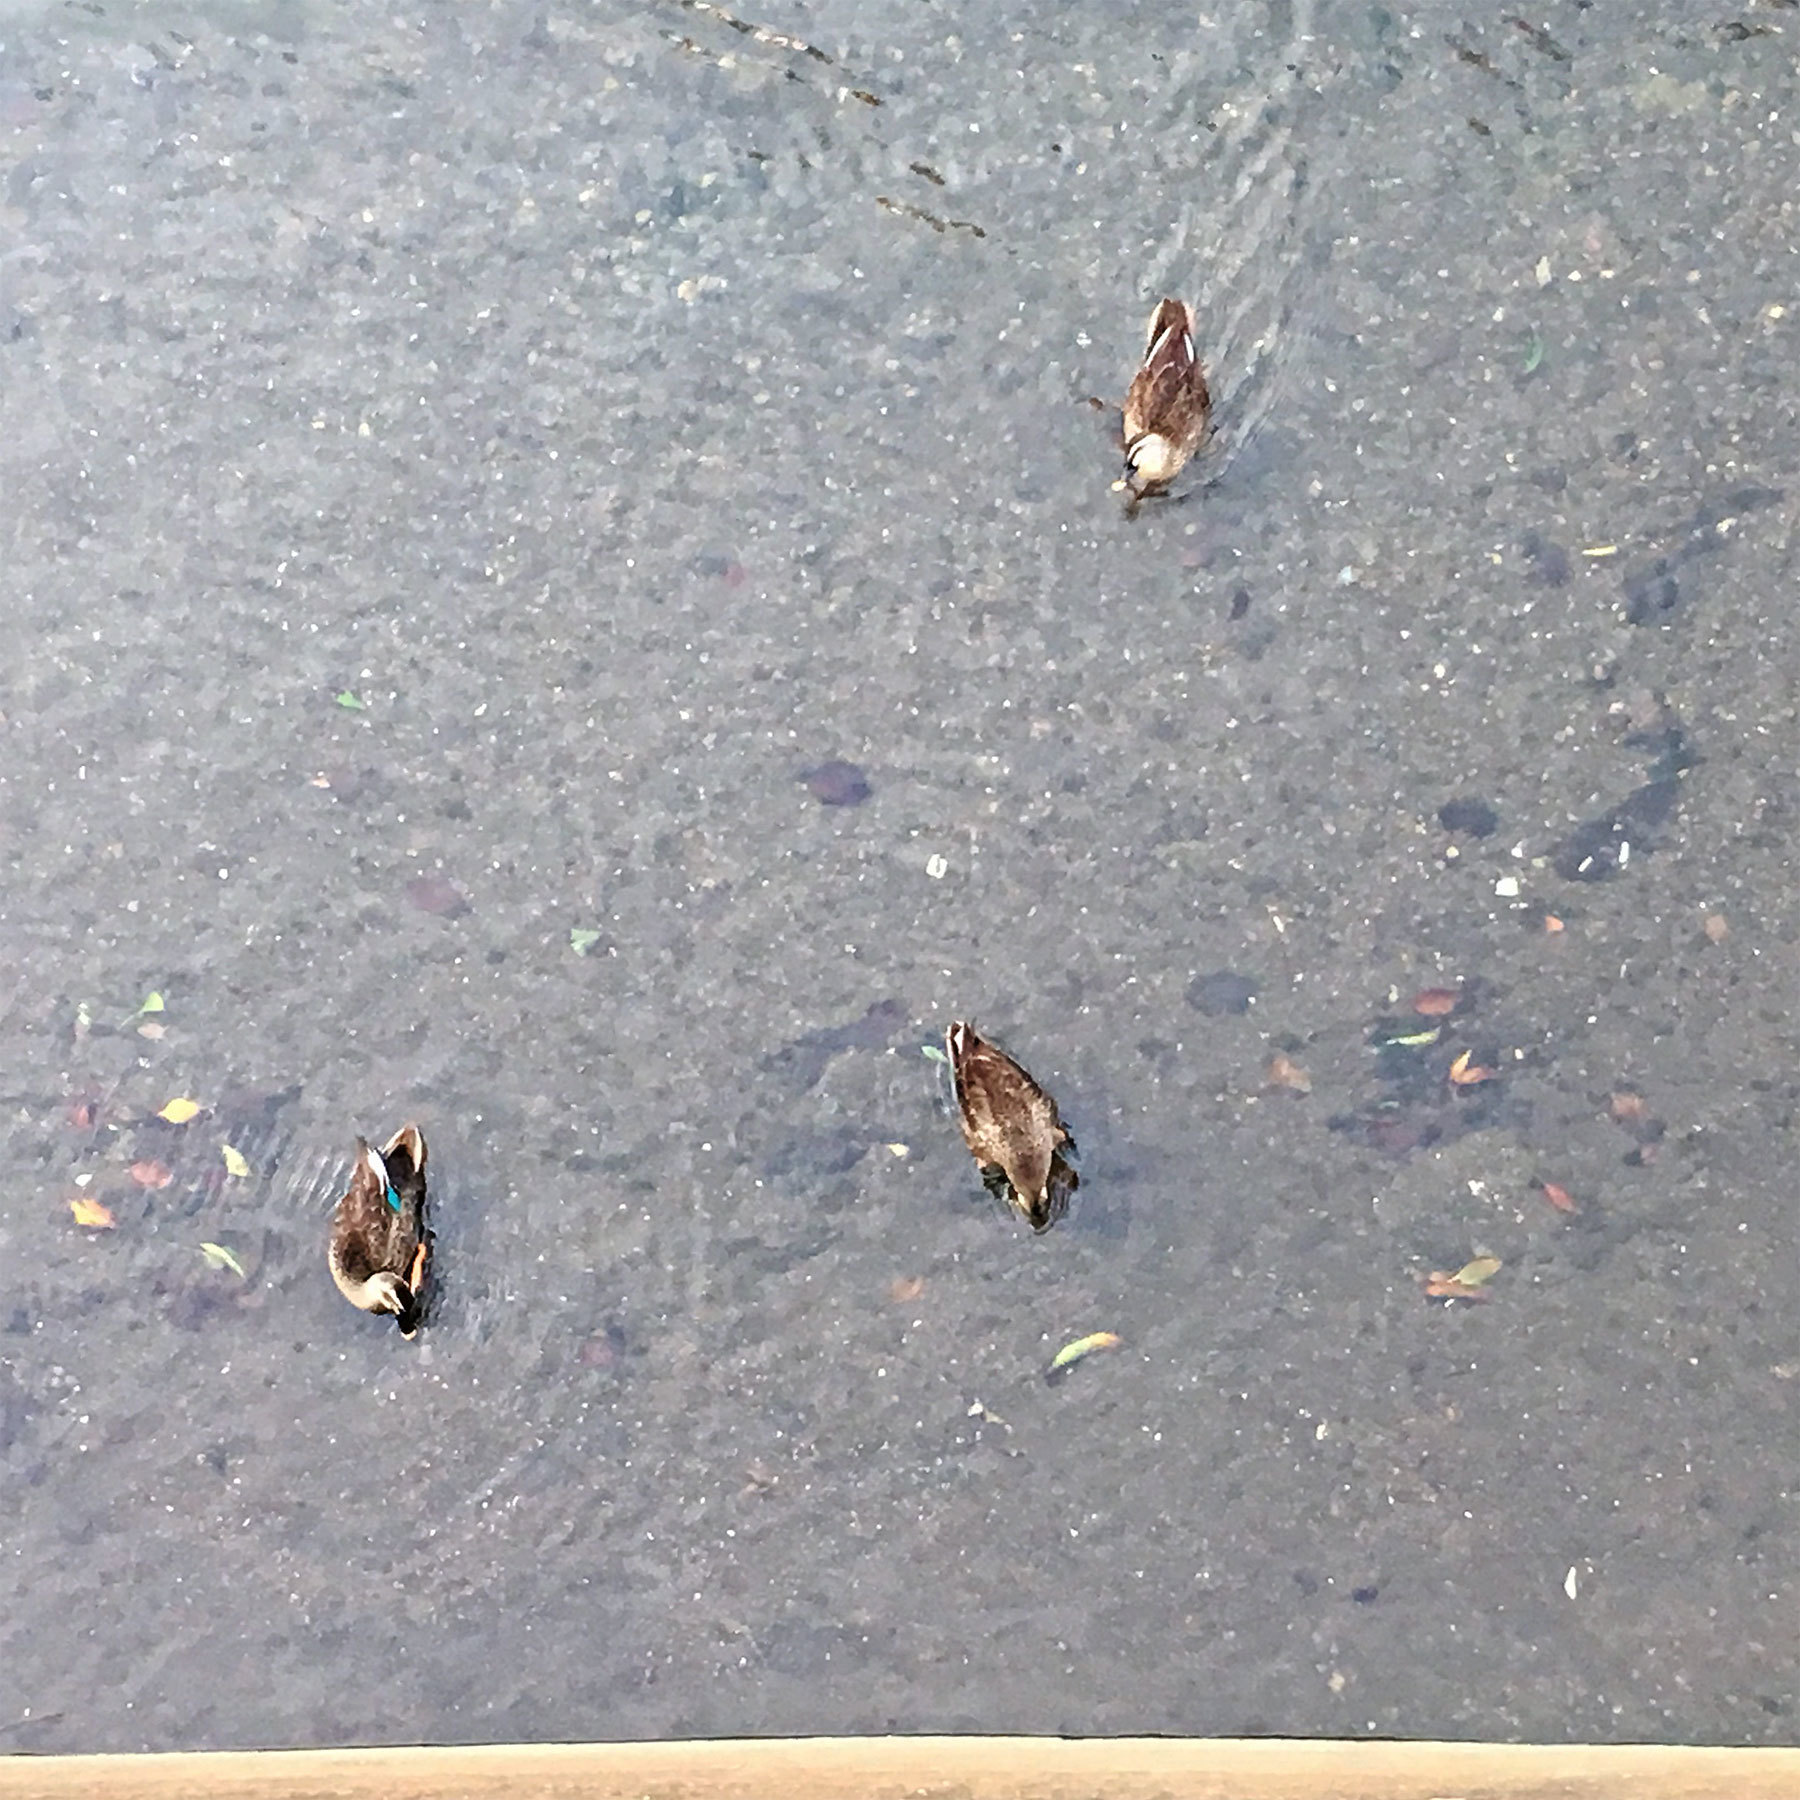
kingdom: Animalia
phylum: Chordata
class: Aves
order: Anseriformes
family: Anatidae
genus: Anas
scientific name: Anas zonorhyncha
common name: Eastern spot-billed duck
